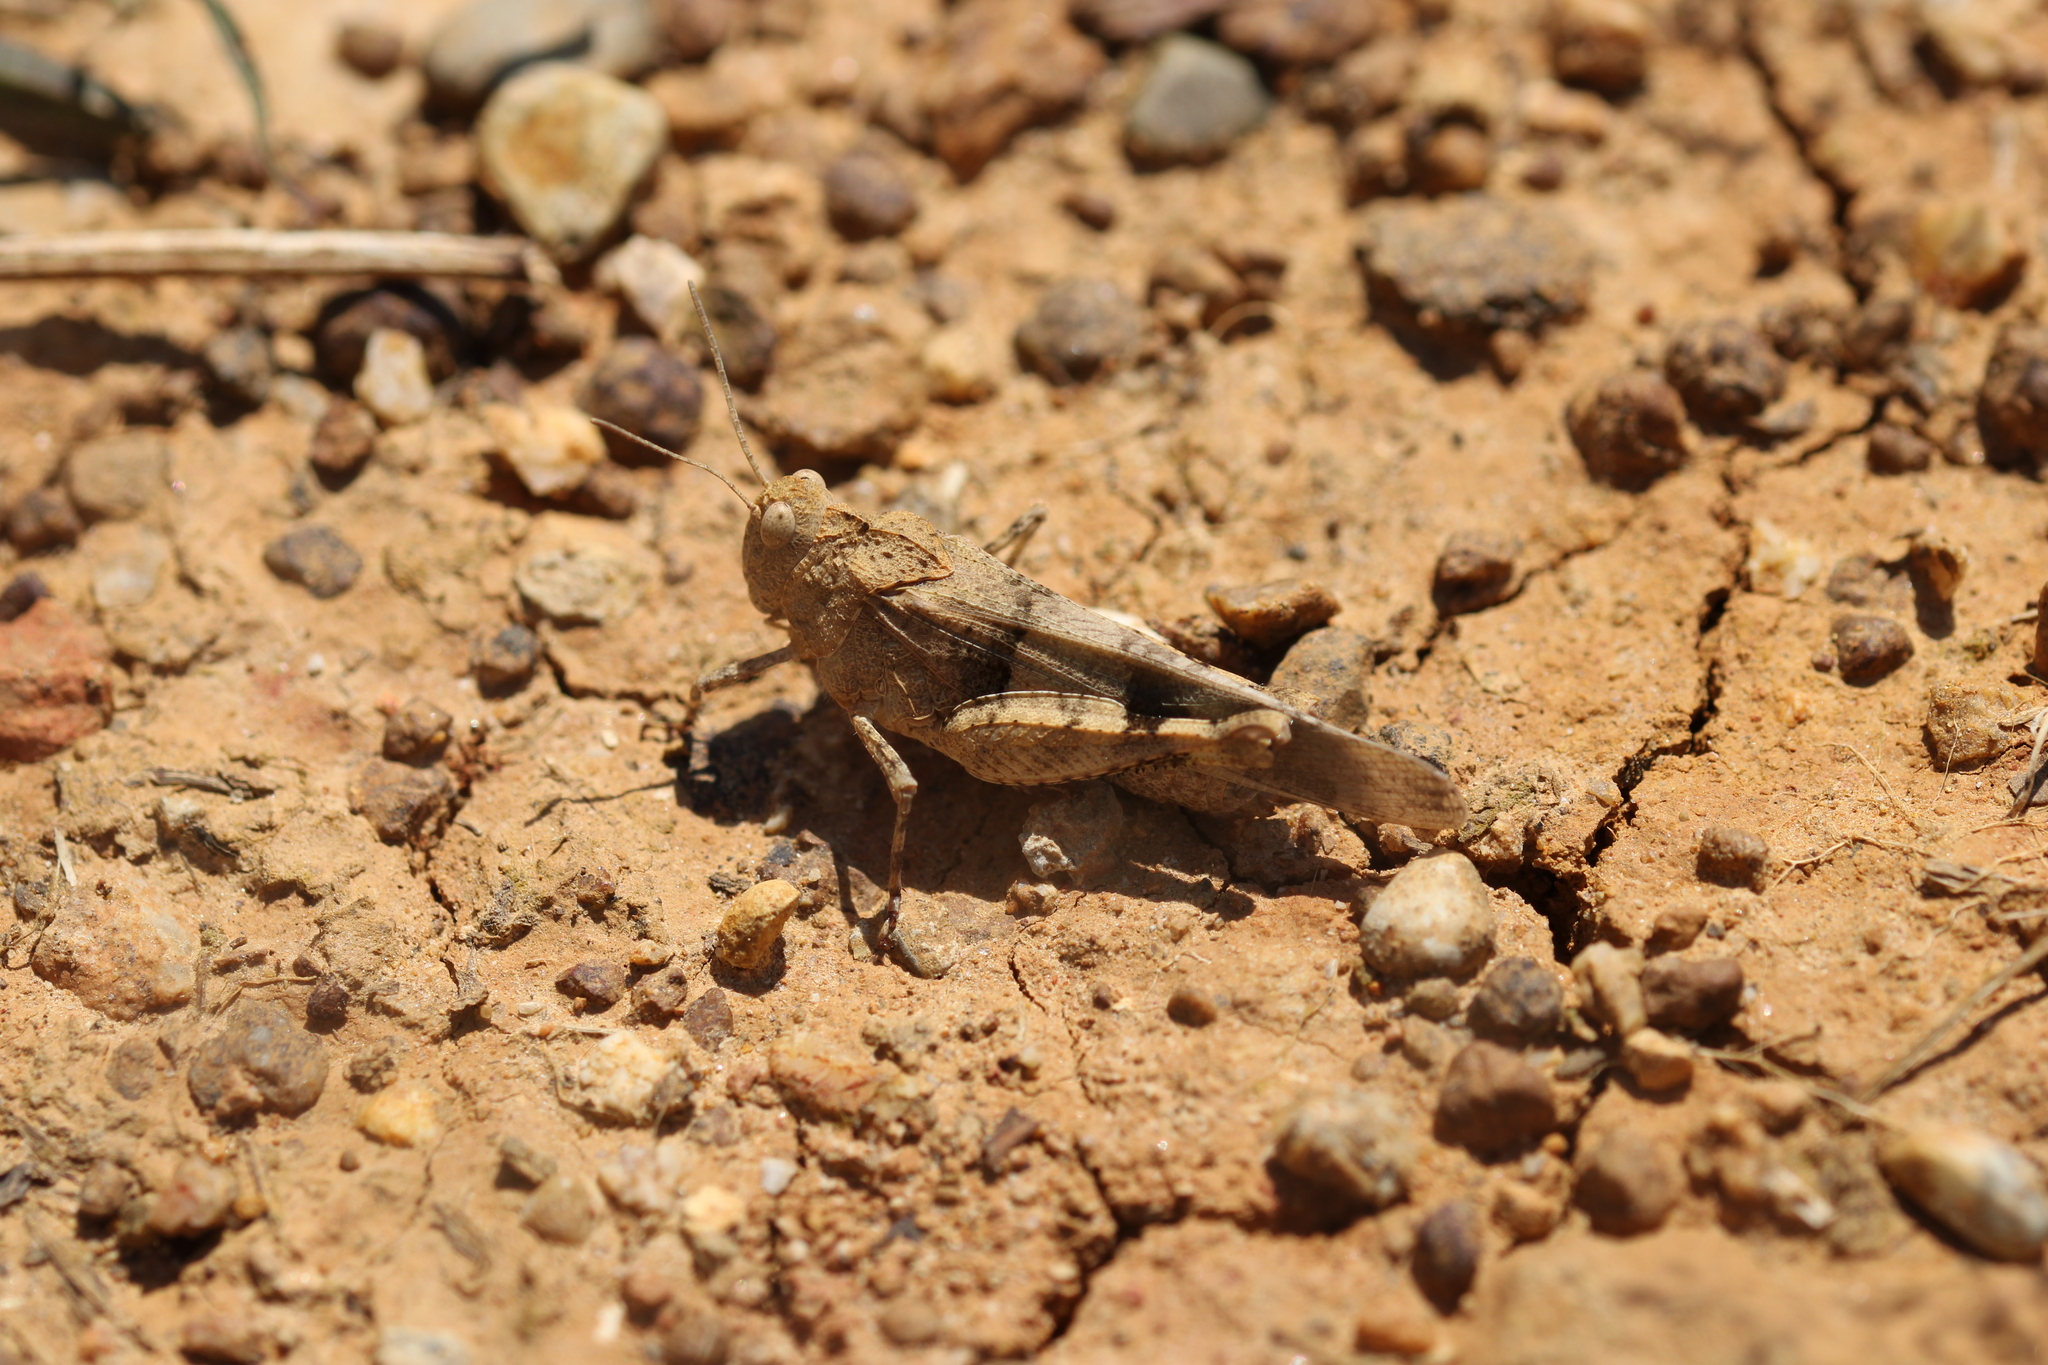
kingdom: Animalia
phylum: Arthropoda
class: Insecta
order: Orthoptera
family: Acrididae
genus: Oedipoda
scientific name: Oedipoda caerulescens
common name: Blue-winged grasshopper
